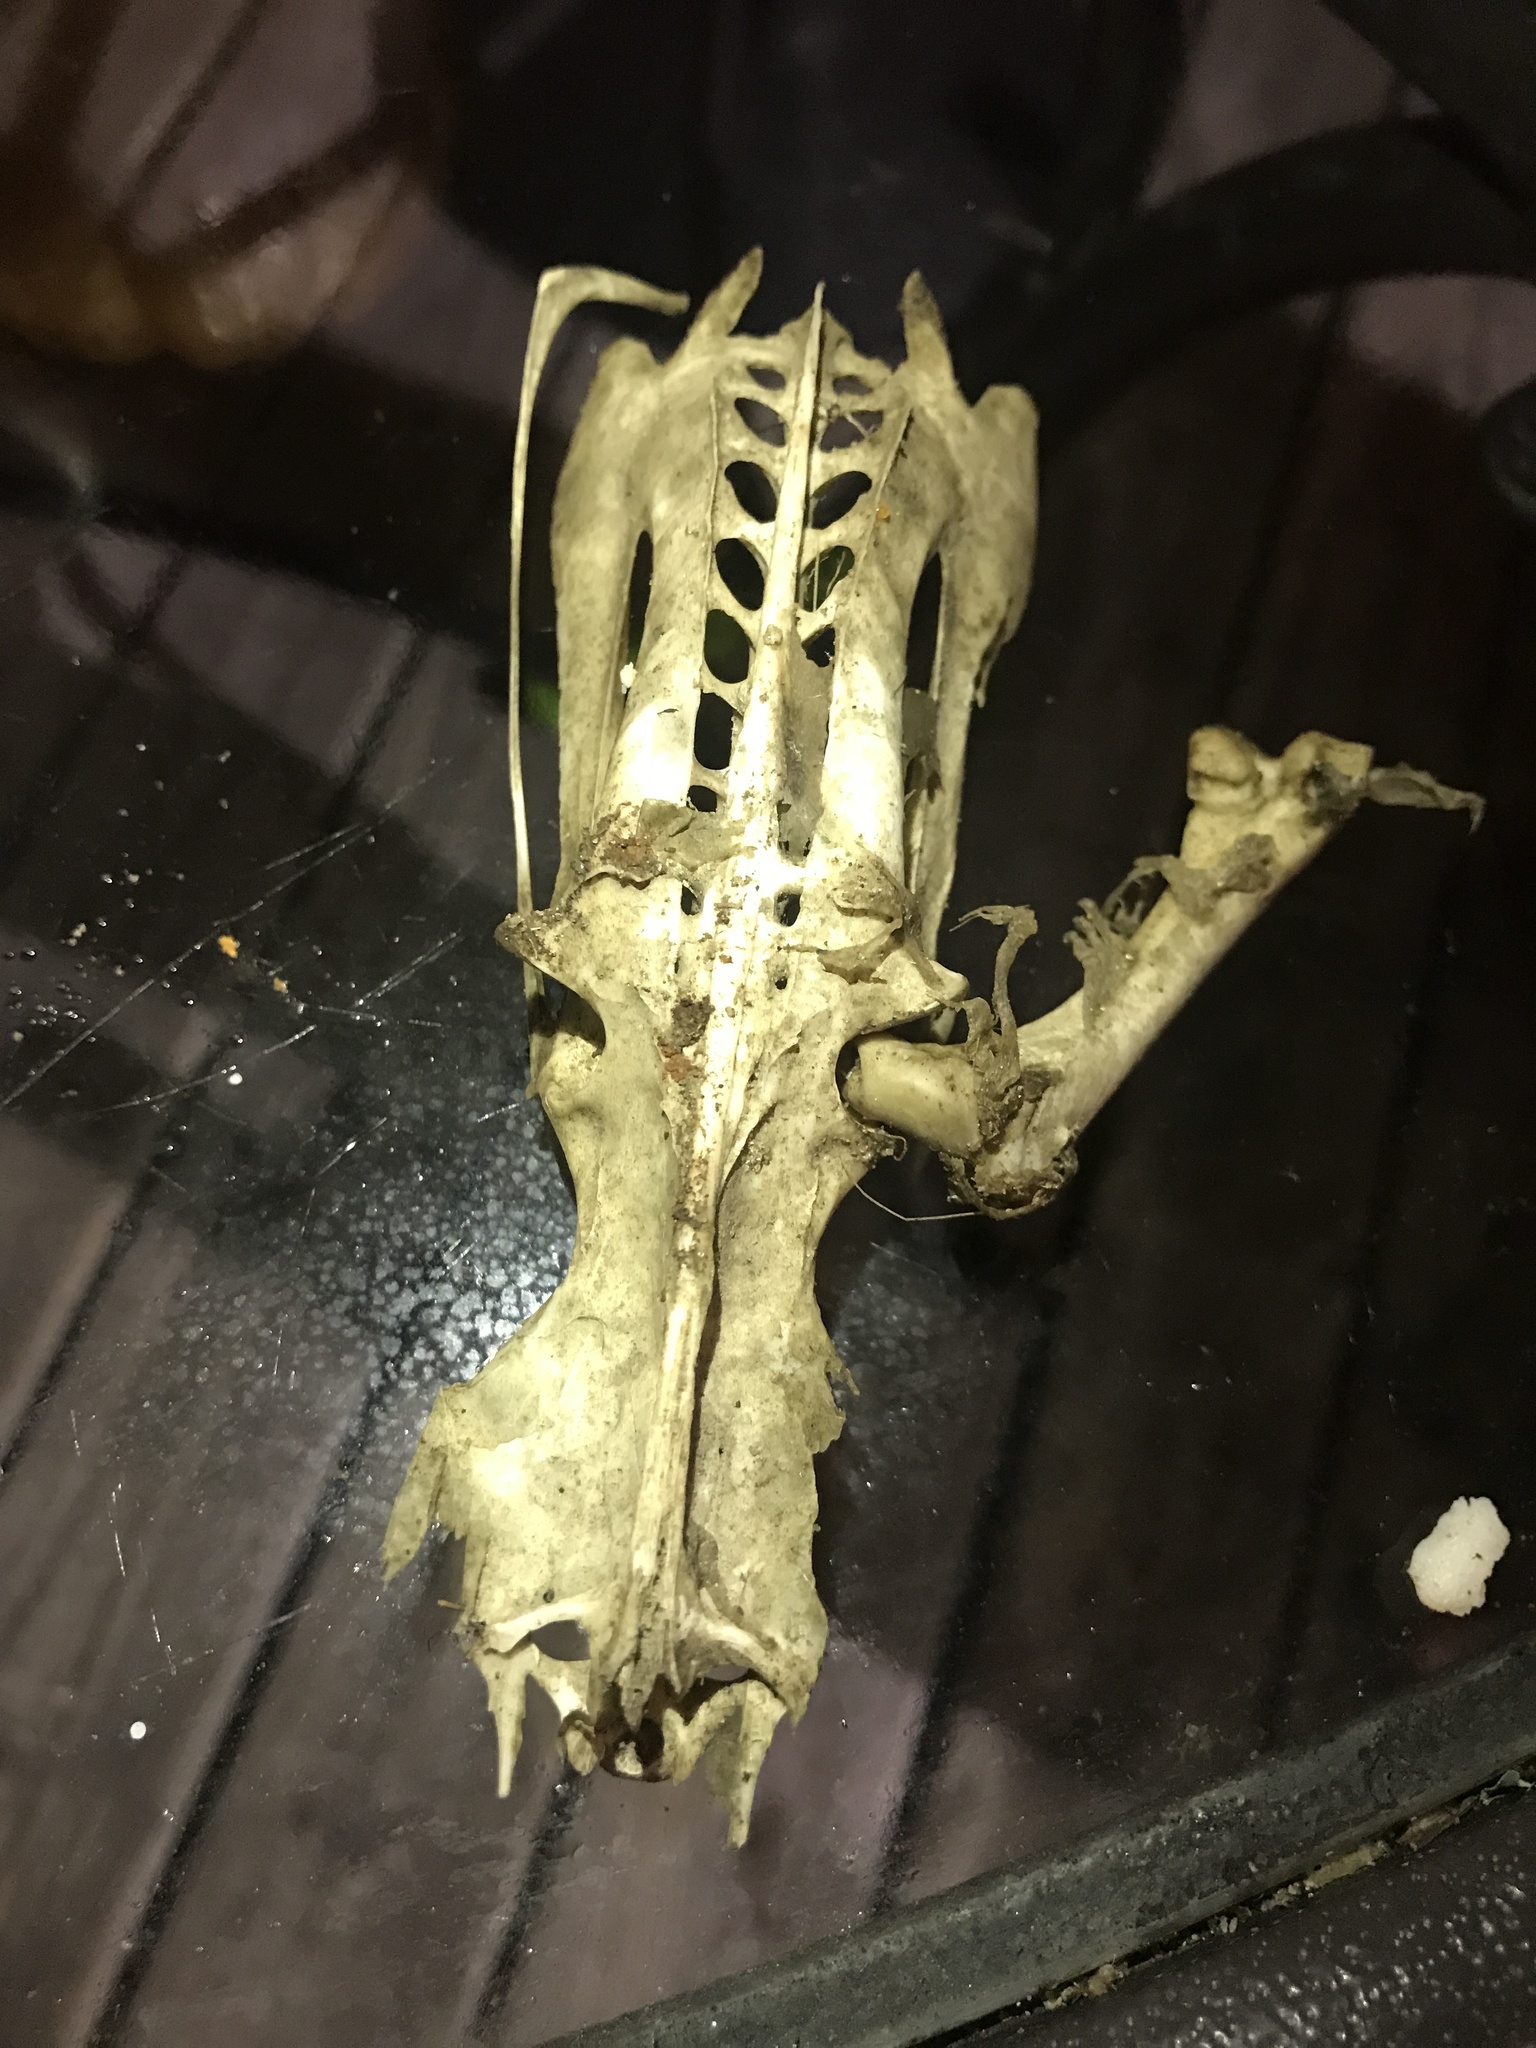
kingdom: Animalia
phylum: Chordata
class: Aves
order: Suliformes
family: Phalacrocoracidae
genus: Phalacrocorax
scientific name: Phalacrocorax auritus
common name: Double-crested cormorant
